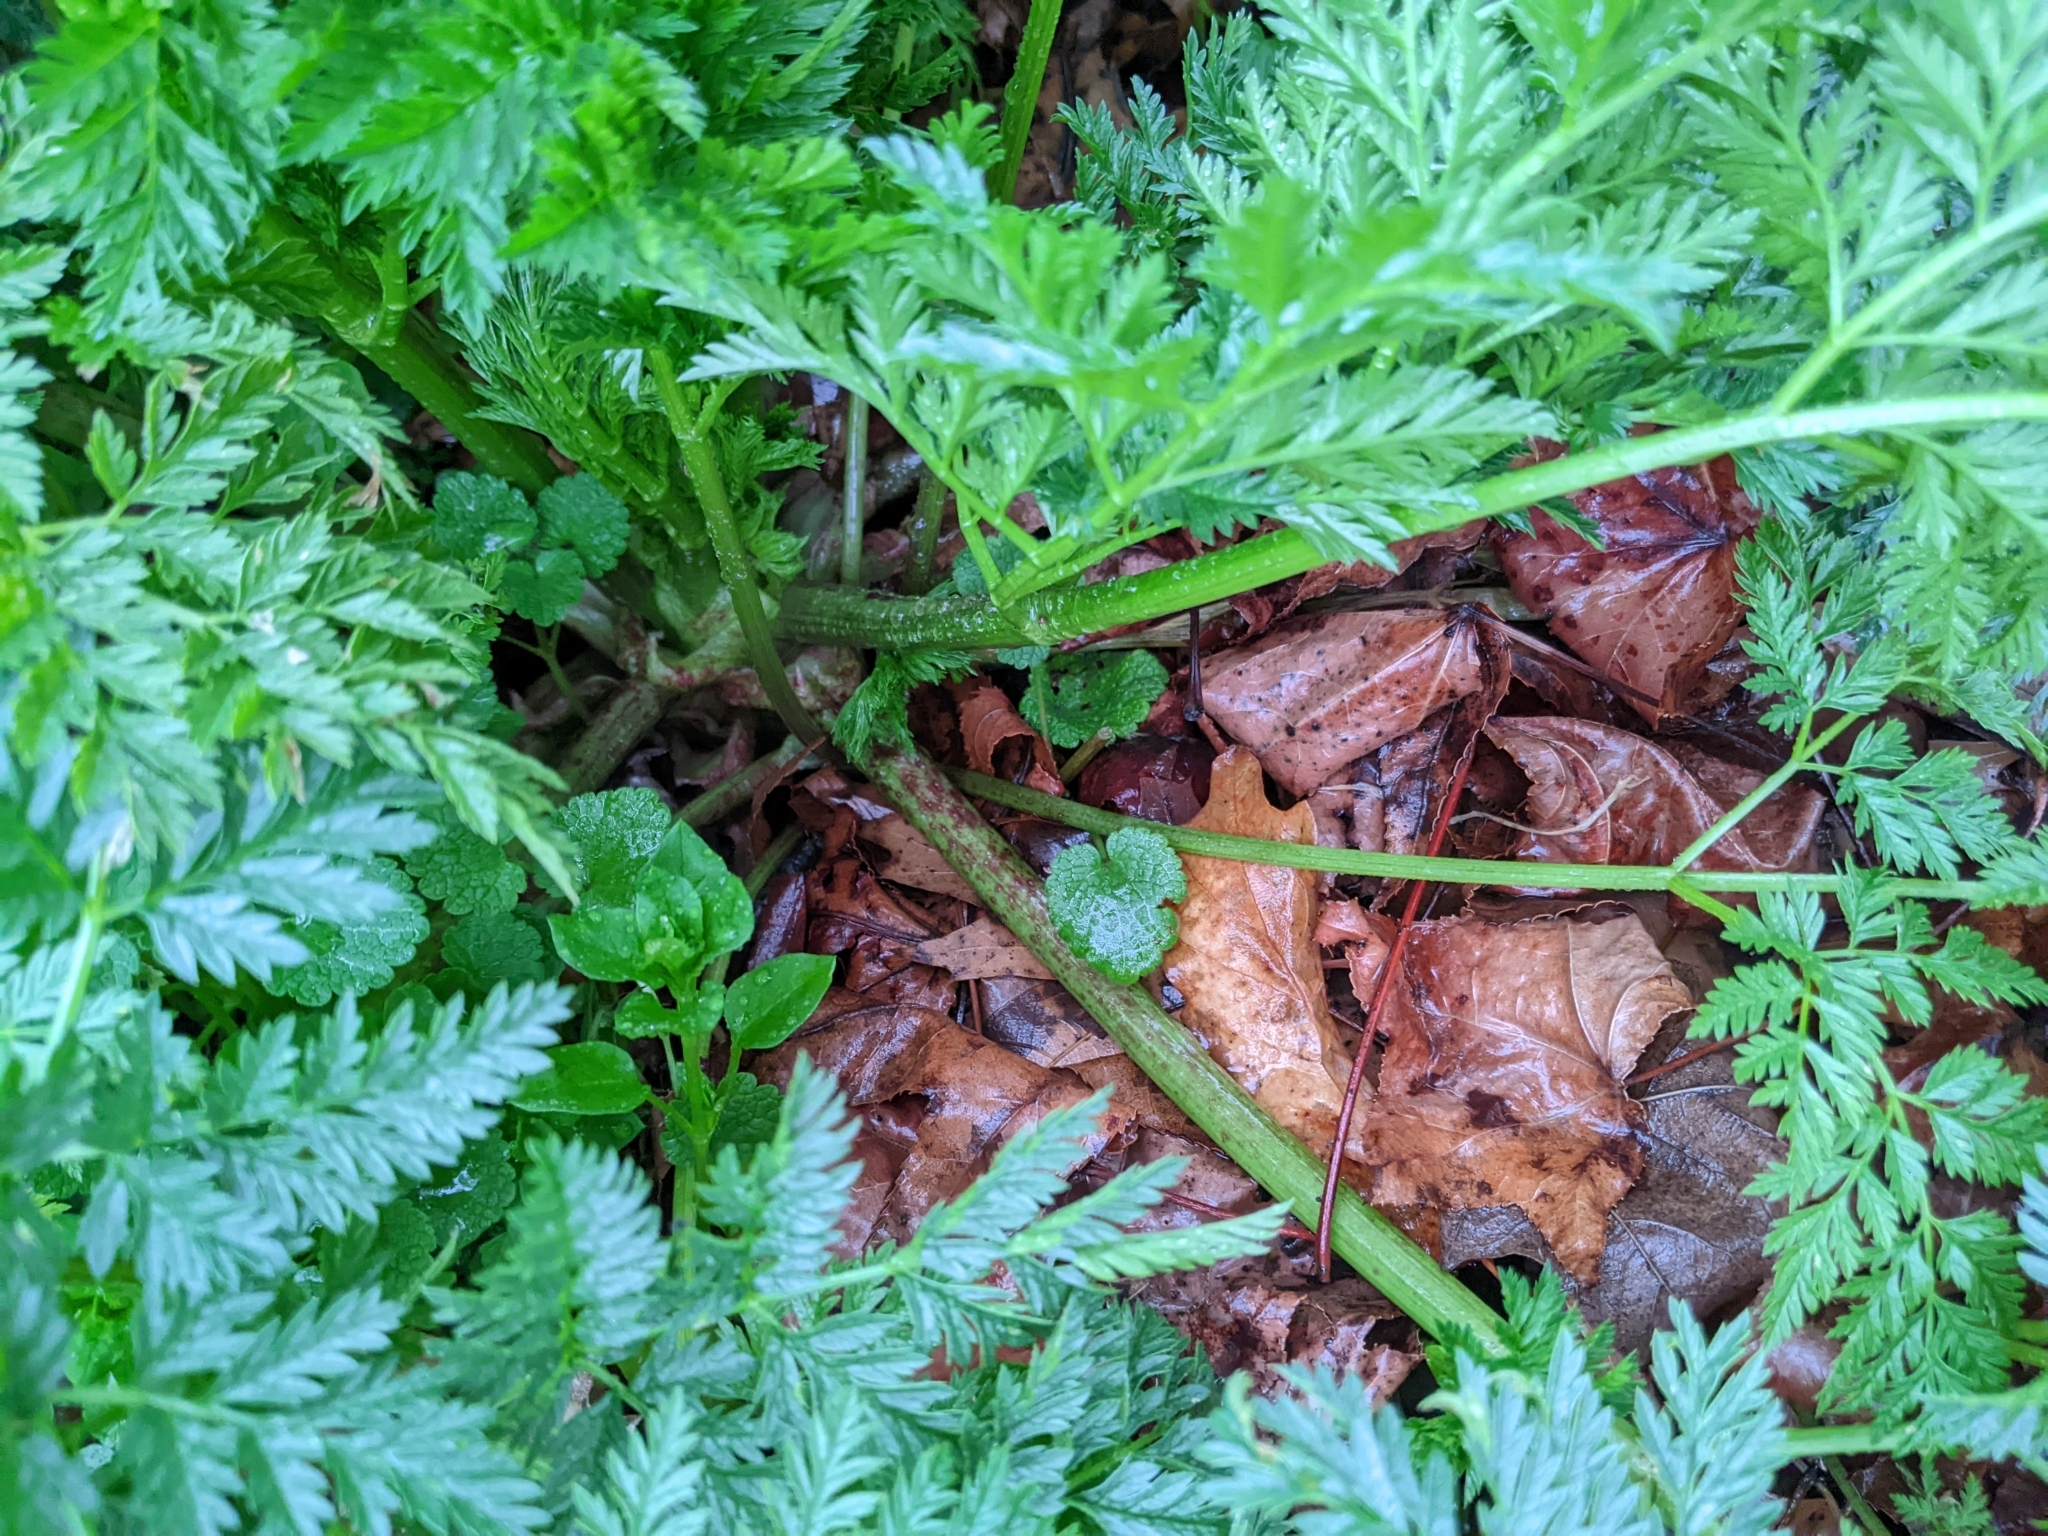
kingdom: Plantae
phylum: Tracheophyta
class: Magnoliopsida
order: Apiales
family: Apiaceae
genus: Conium
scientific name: Conium maculatum
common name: Hemlock
